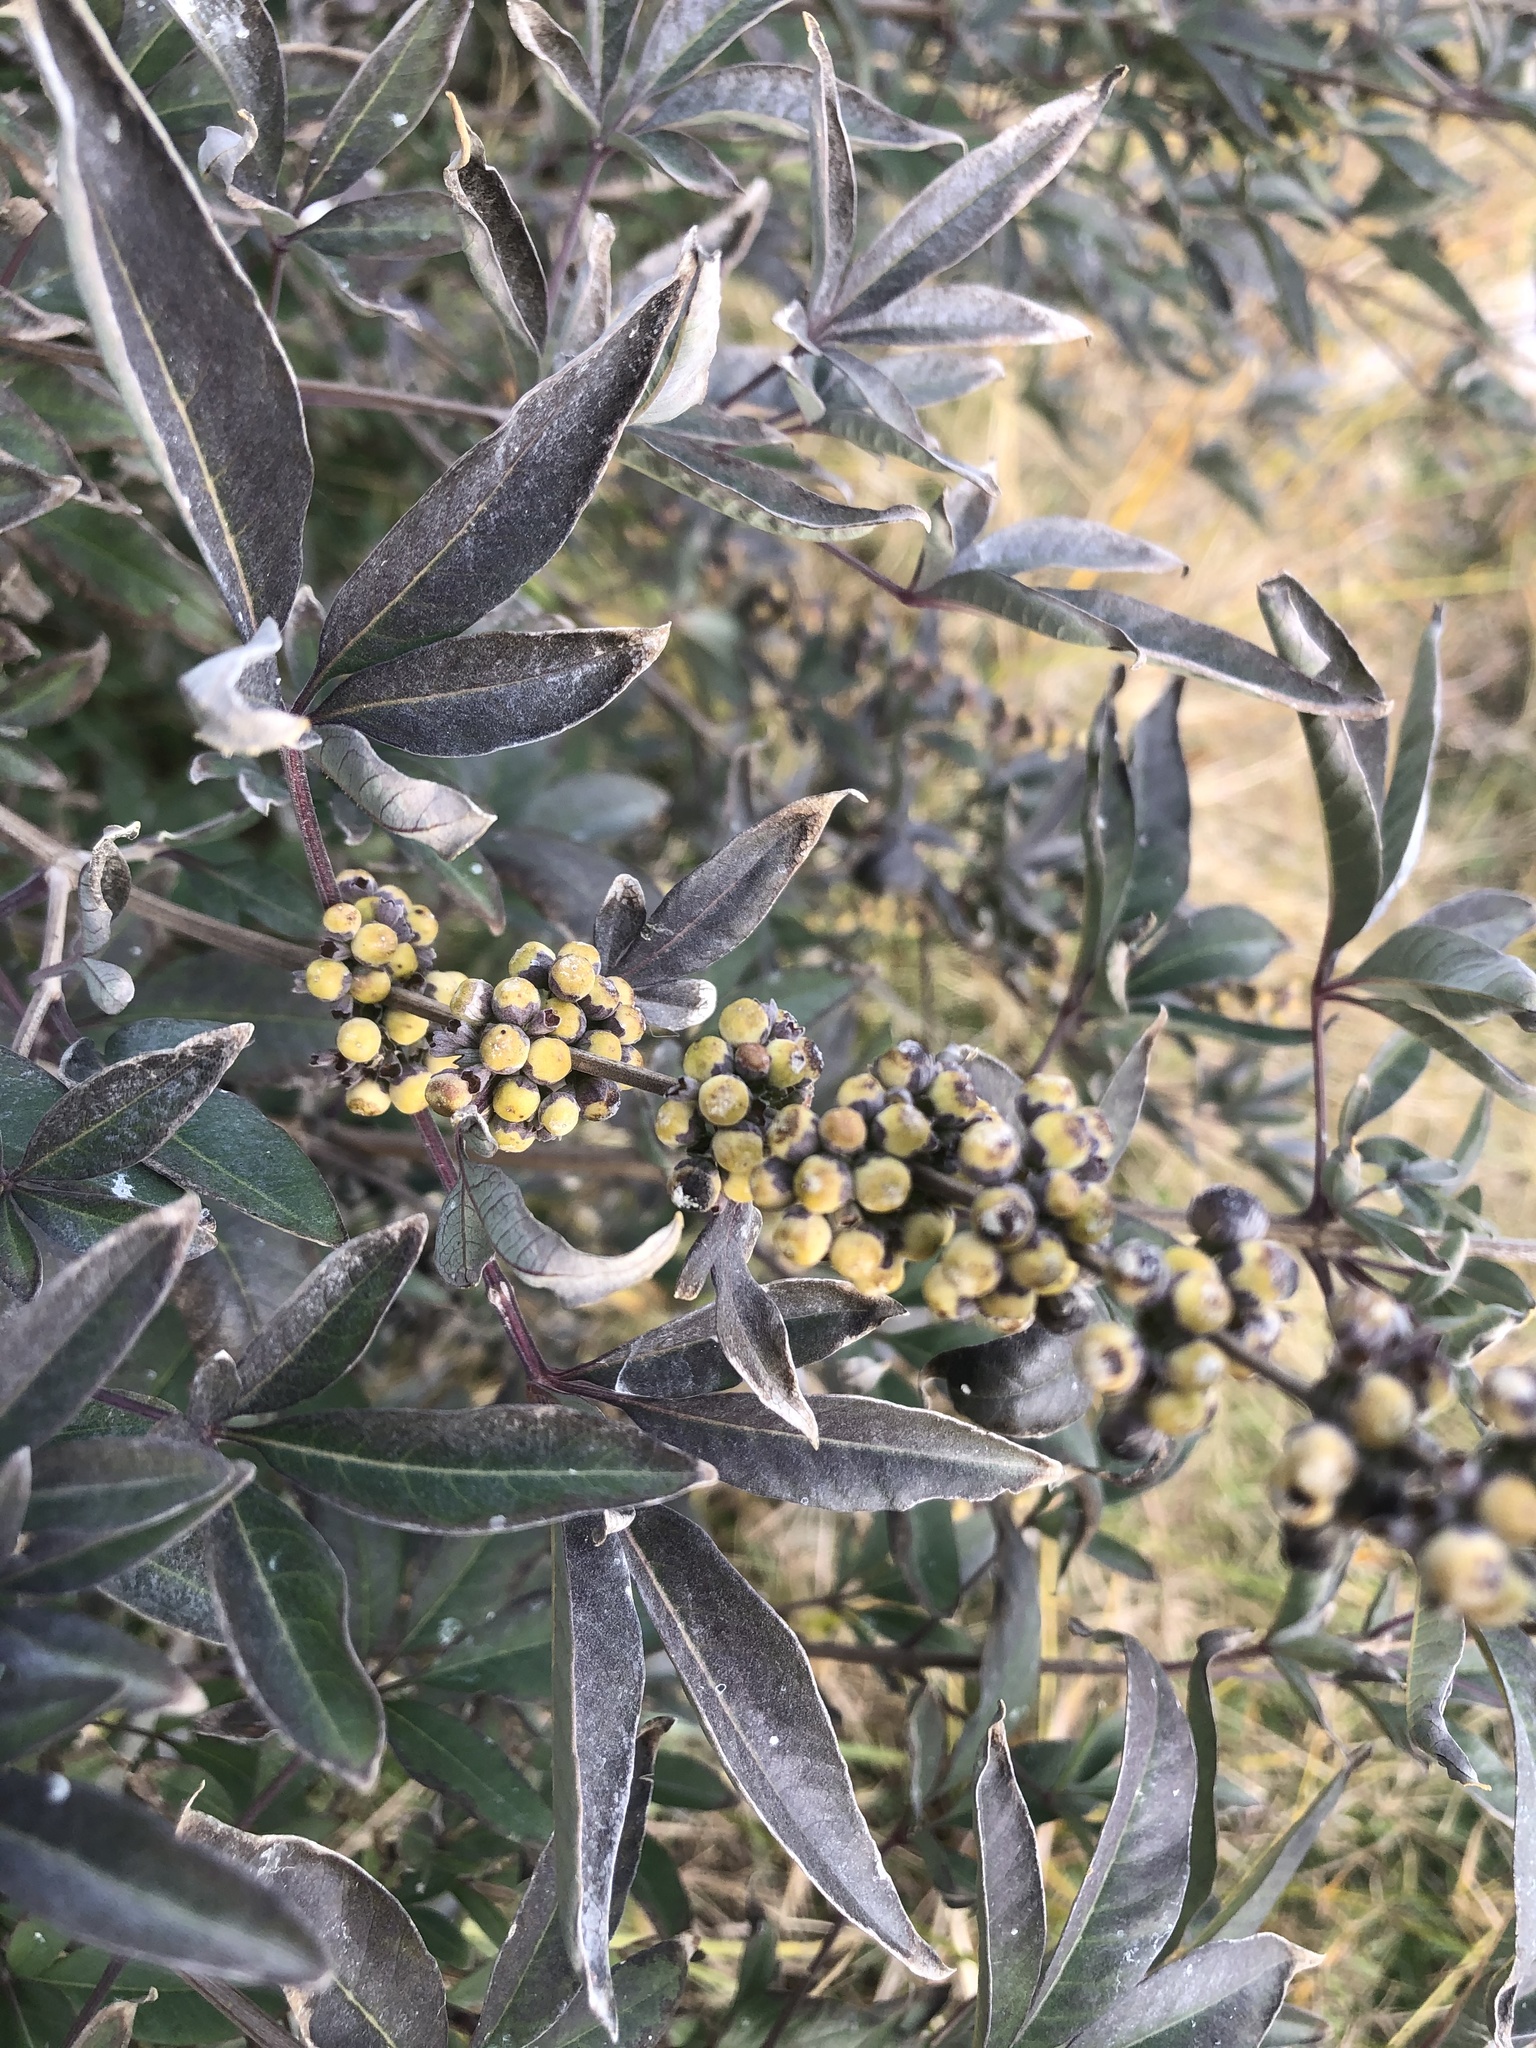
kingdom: Plantae
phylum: Tracheophyta
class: Magnoliopsida
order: Lamiales
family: Lamiaceae
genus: Vitex
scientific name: Vitex agnus-castus
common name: Chasteberry
